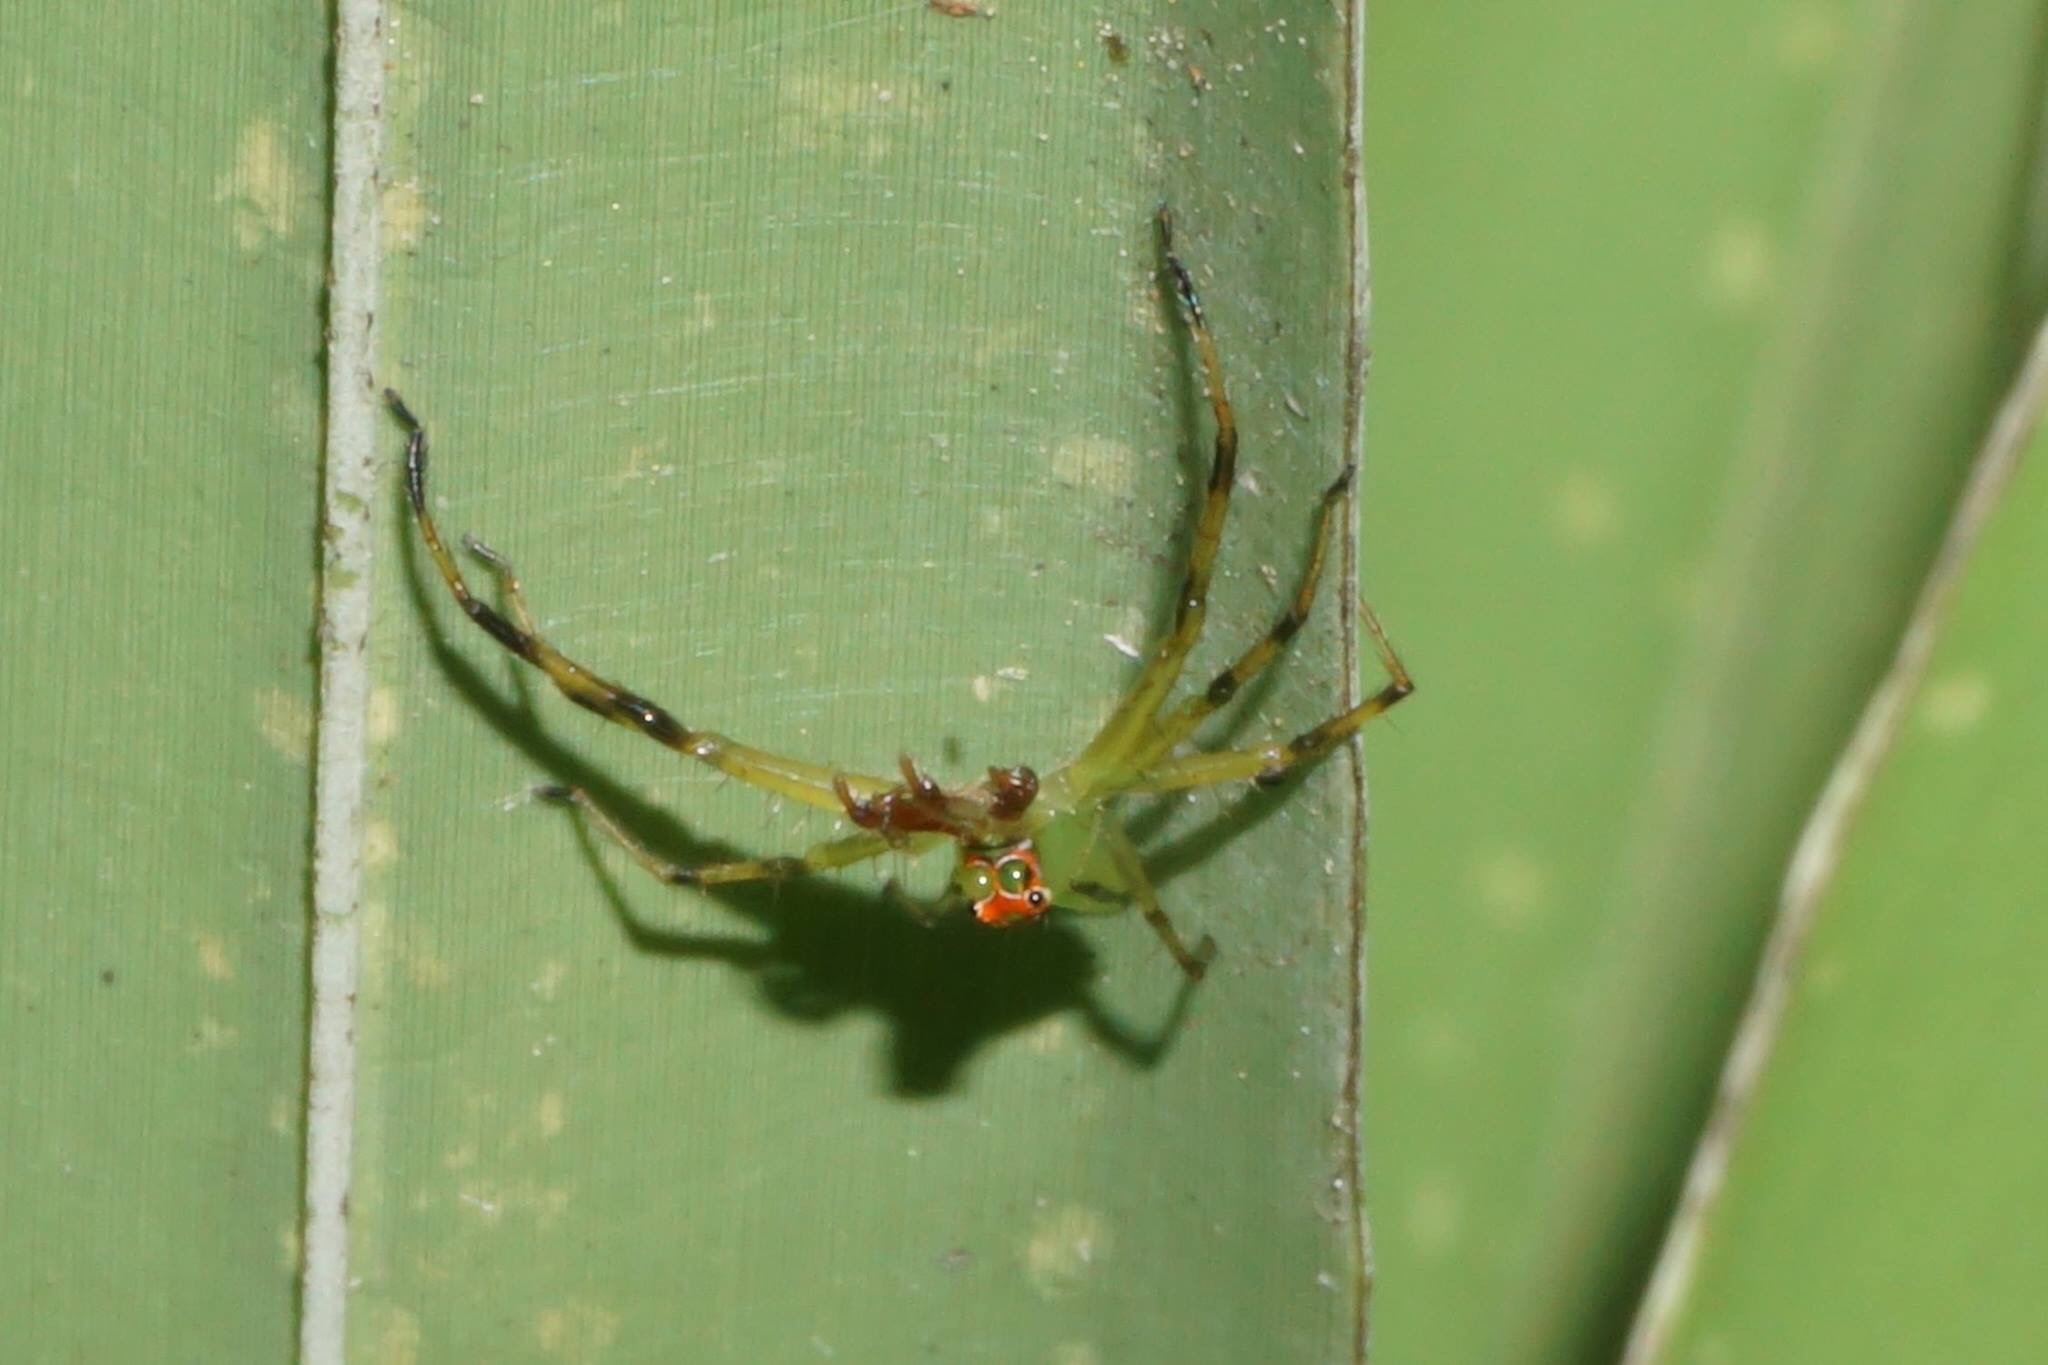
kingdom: Animalia
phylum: Arthropoda
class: Arachnida
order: Araneae
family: Salticidae
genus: Lyssomanes
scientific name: Lyssomanes viridis
